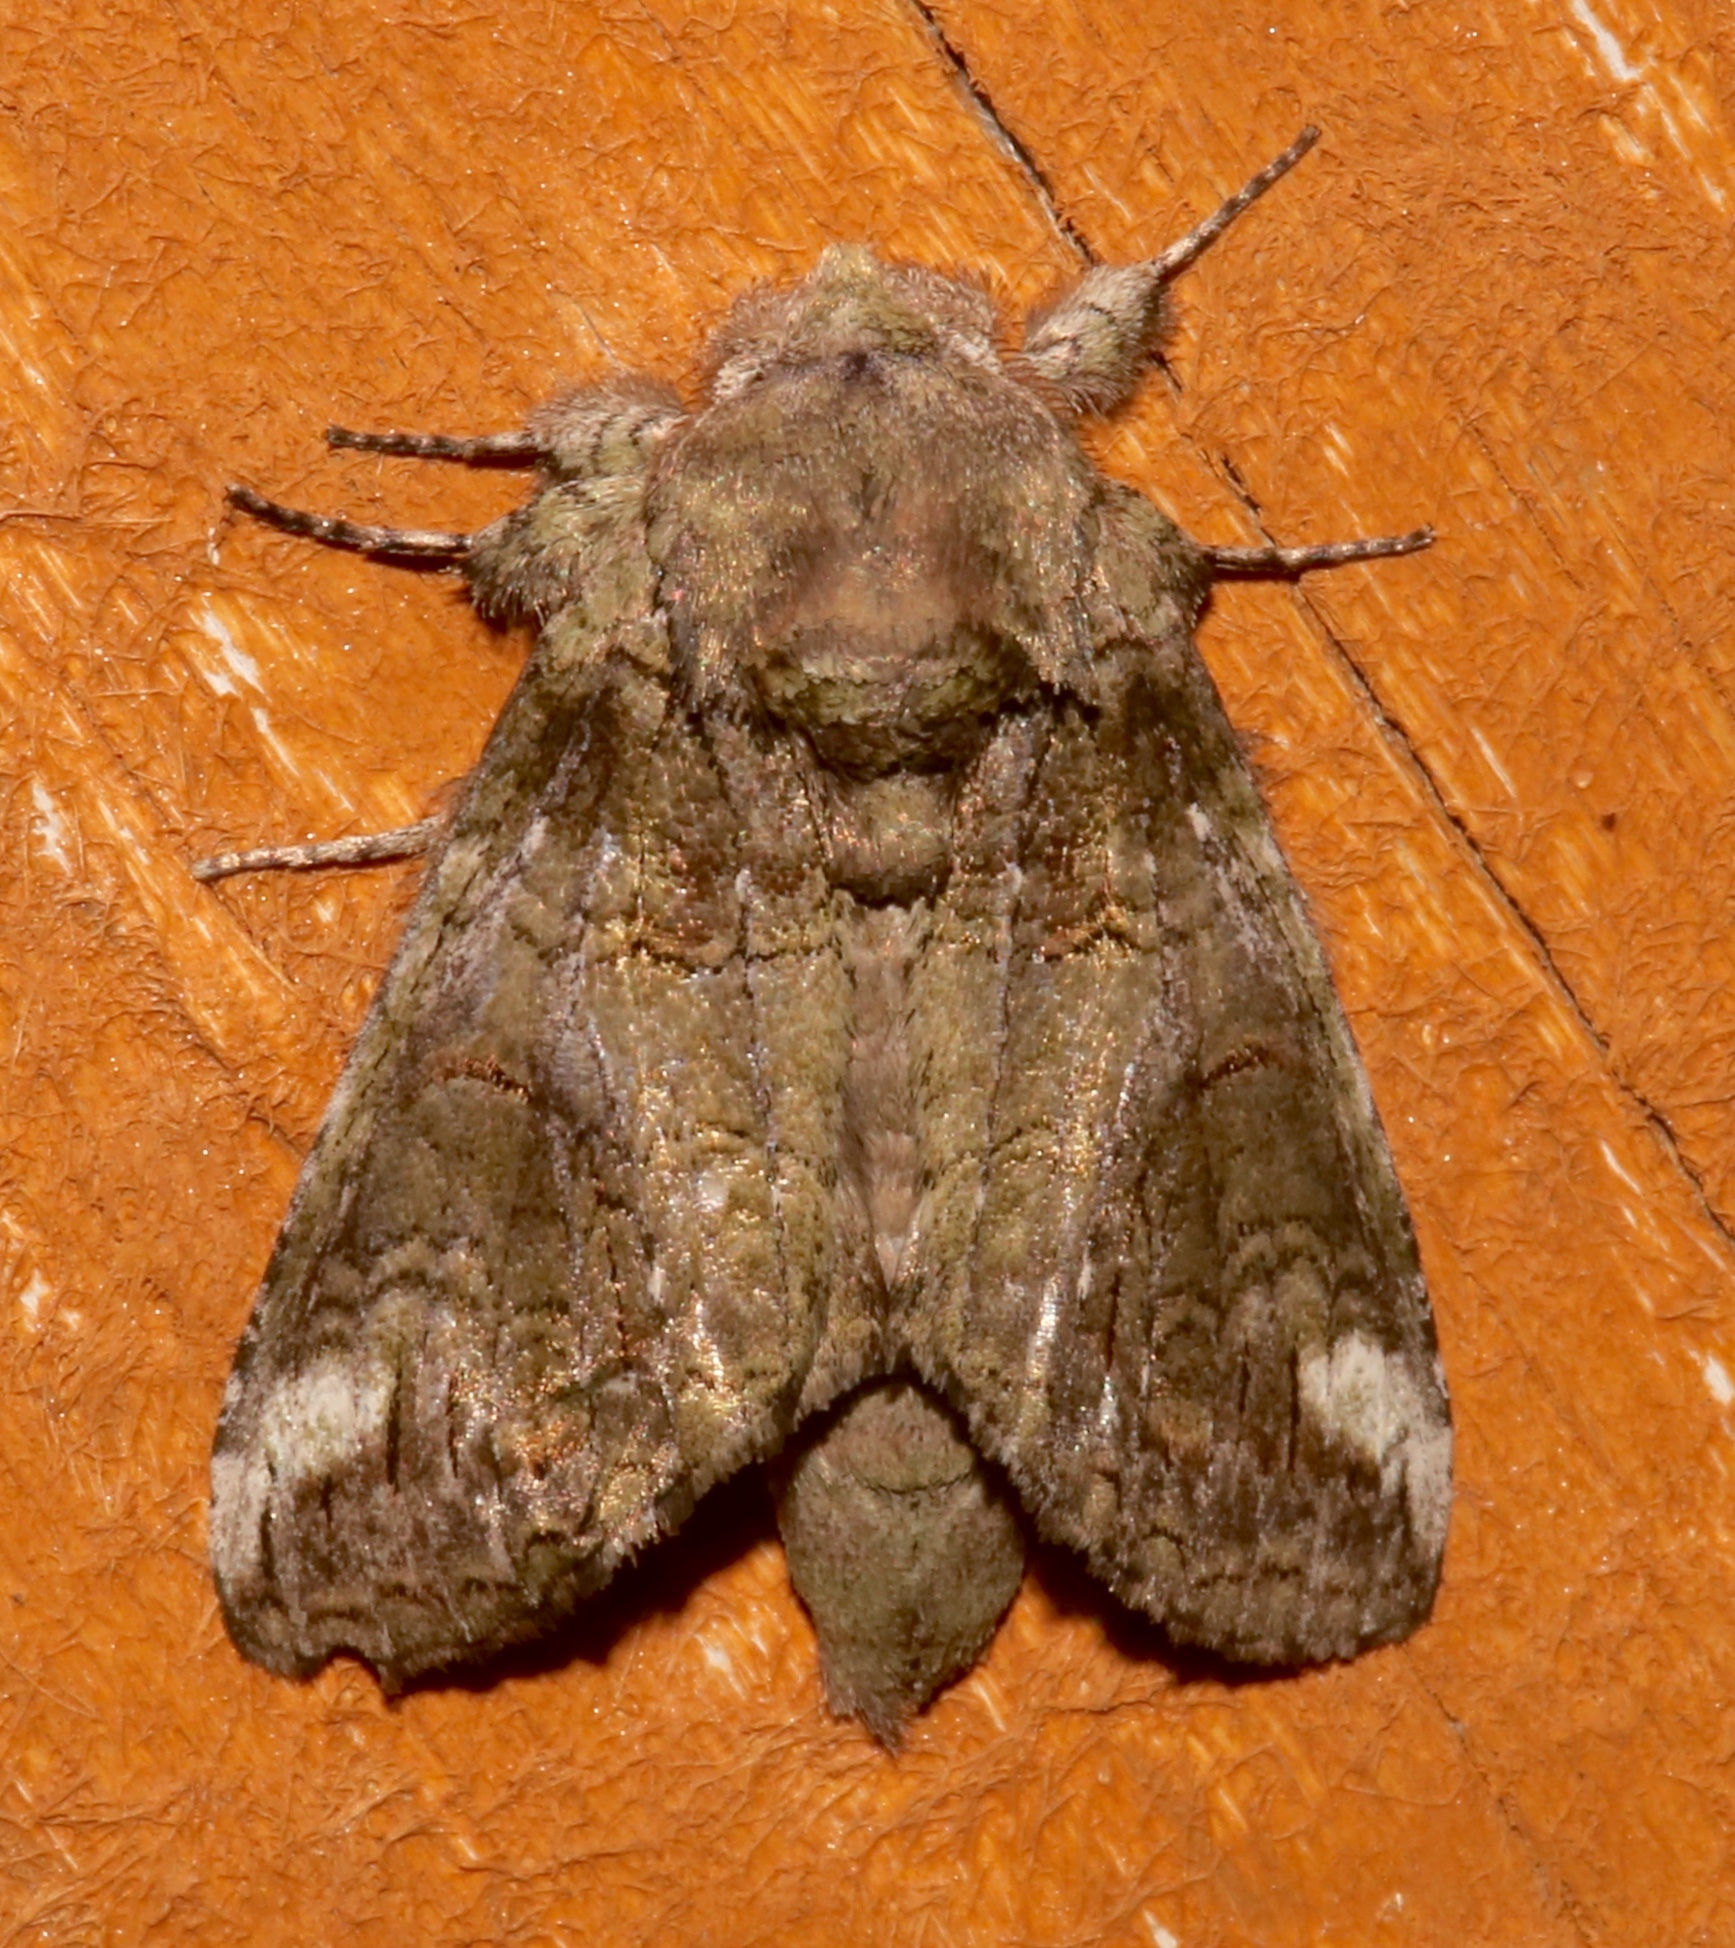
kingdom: Animalia
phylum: Arthropoda
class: Insecta
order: Lepidoptera
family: Notodontidae
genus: Heterocampa
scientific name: Heterocampa obliqua
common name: Oblique heterocampa
